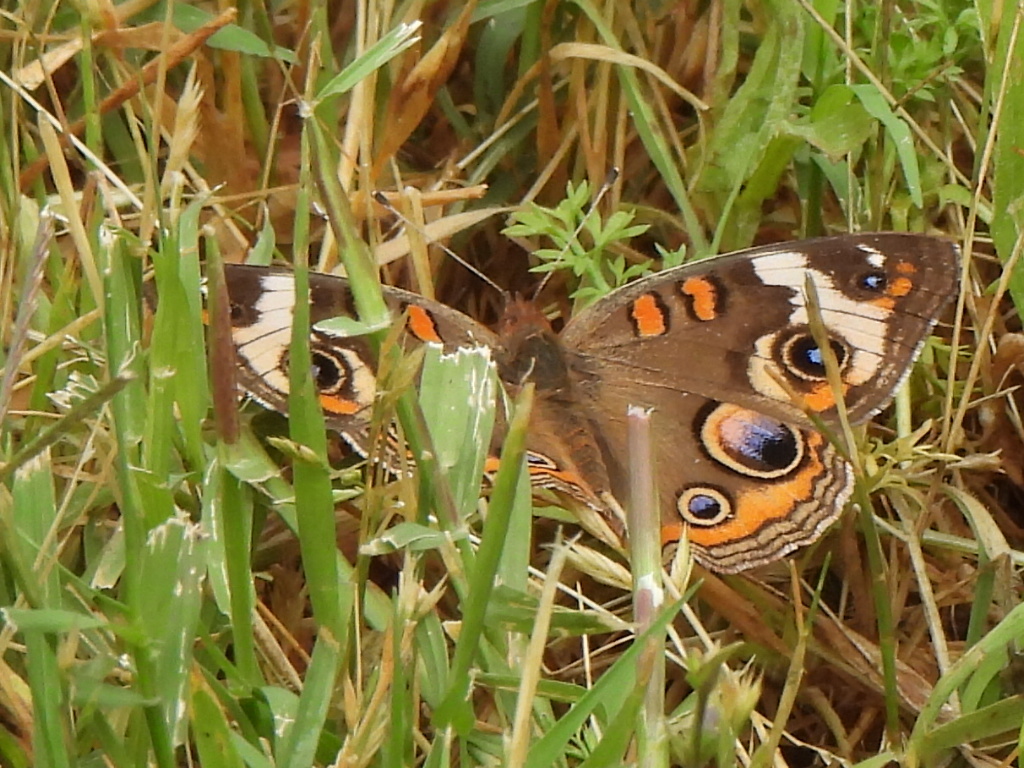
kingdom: Animalia
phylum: Arthropoda
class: Insecta
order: Lepidoptera
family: Nymphalidae
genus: Junonia
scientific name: Junonia coenia
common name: Common buckeye
